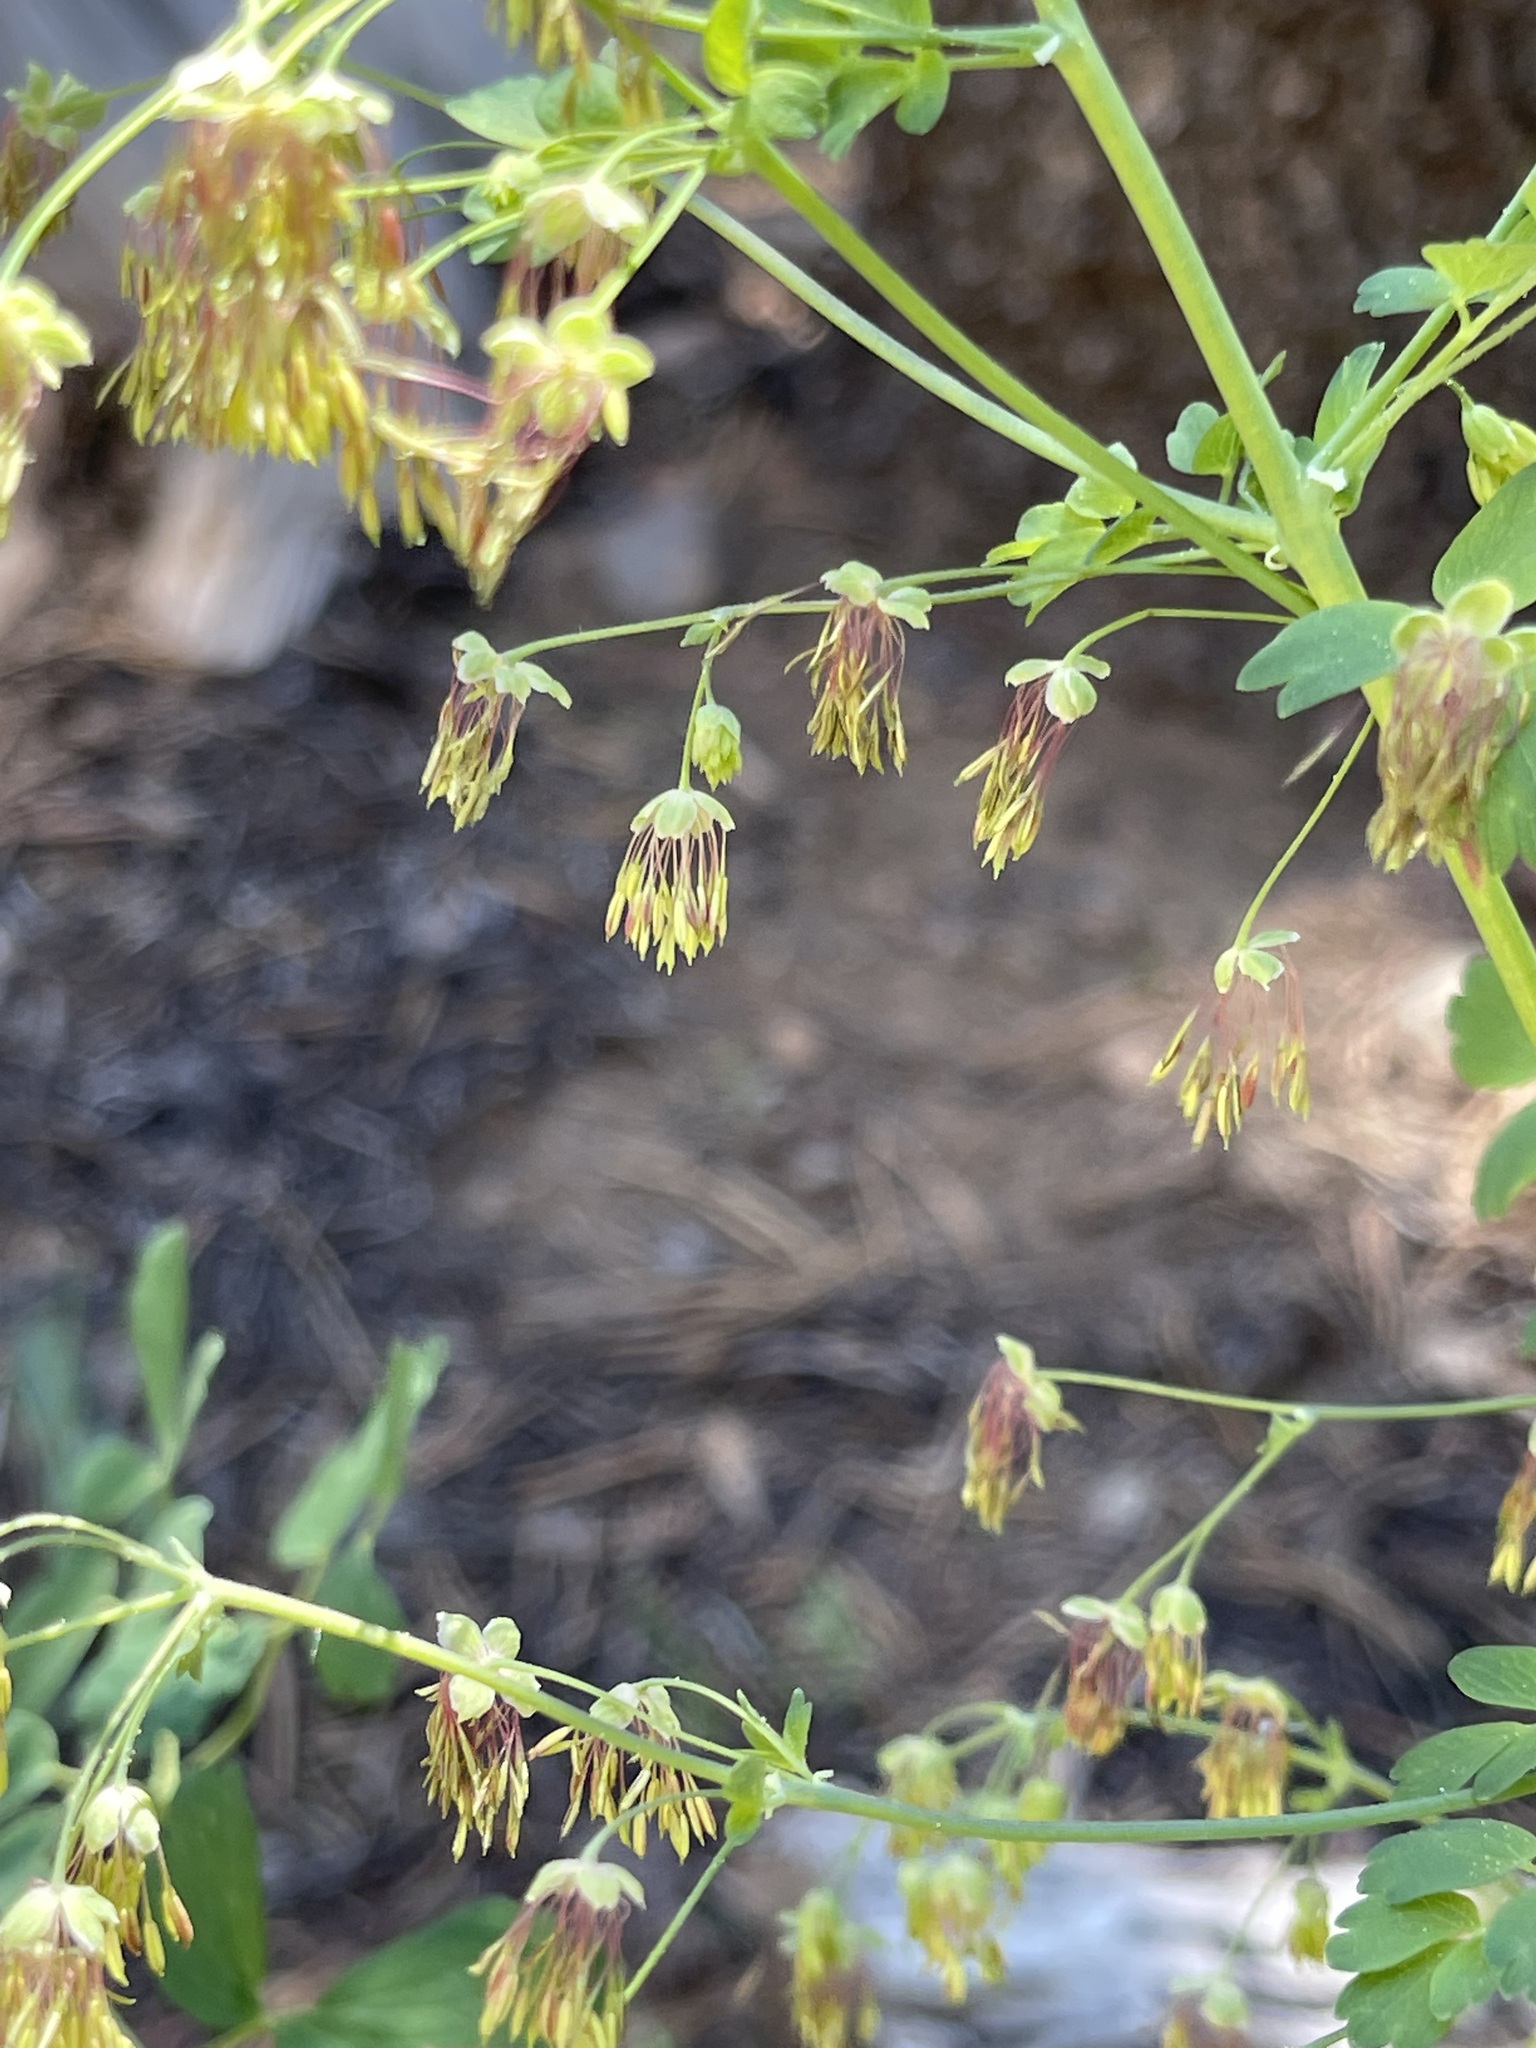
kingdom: Plantae
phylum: Tracheophyta
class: Magnoliopsida
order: Ranunculales
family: Ranunculaceae
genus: Thalictrum
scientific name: Thalictrum fendleri
